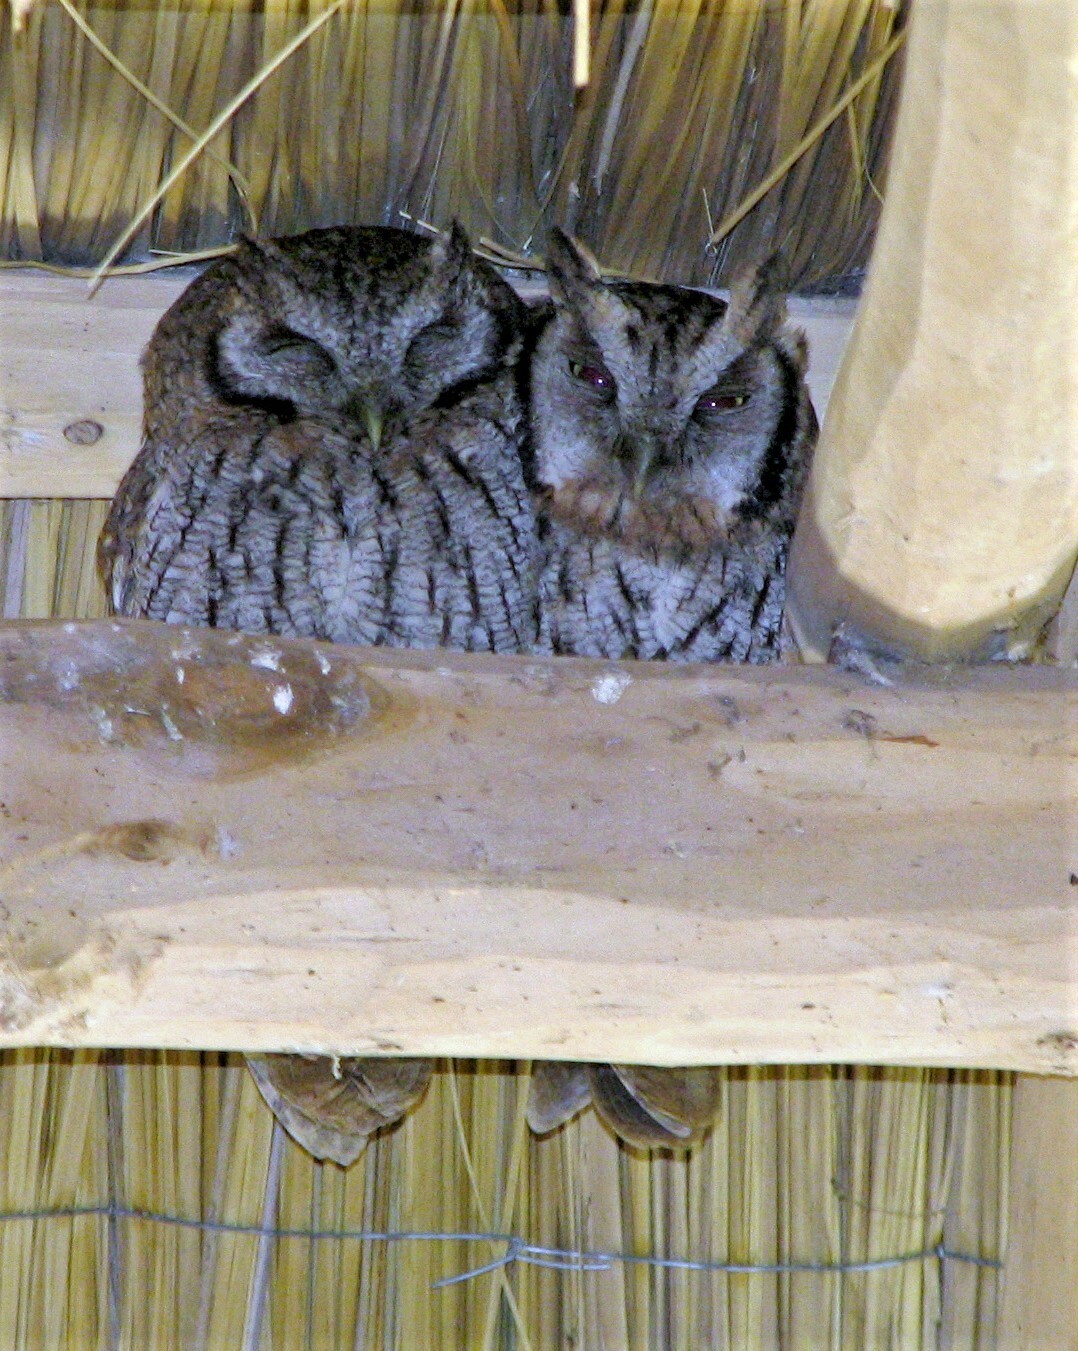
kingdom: Animalia
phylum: Chordata
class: Aves
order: Strigiformes
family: Strigidae
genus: Megascops
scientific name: Megascops choliba
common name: Tropical screech-owl
